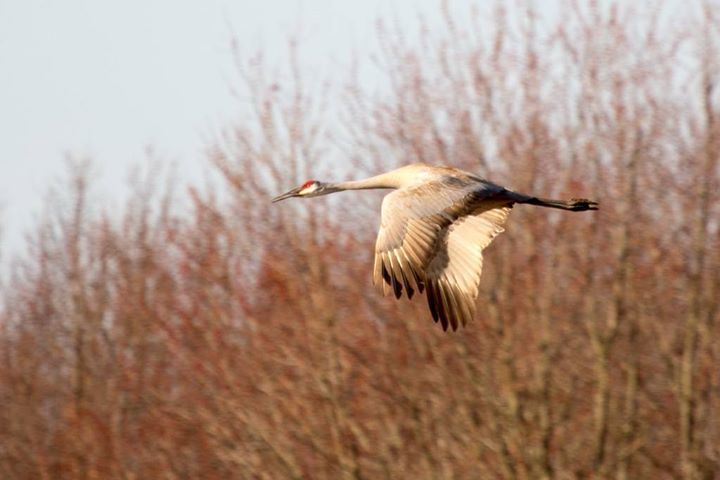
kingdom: Animalia
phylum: Chordata
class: Aves
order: Gruiformes
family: Gruidae
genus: Grus
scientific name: Grus canadensis
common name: Sandhill crane
